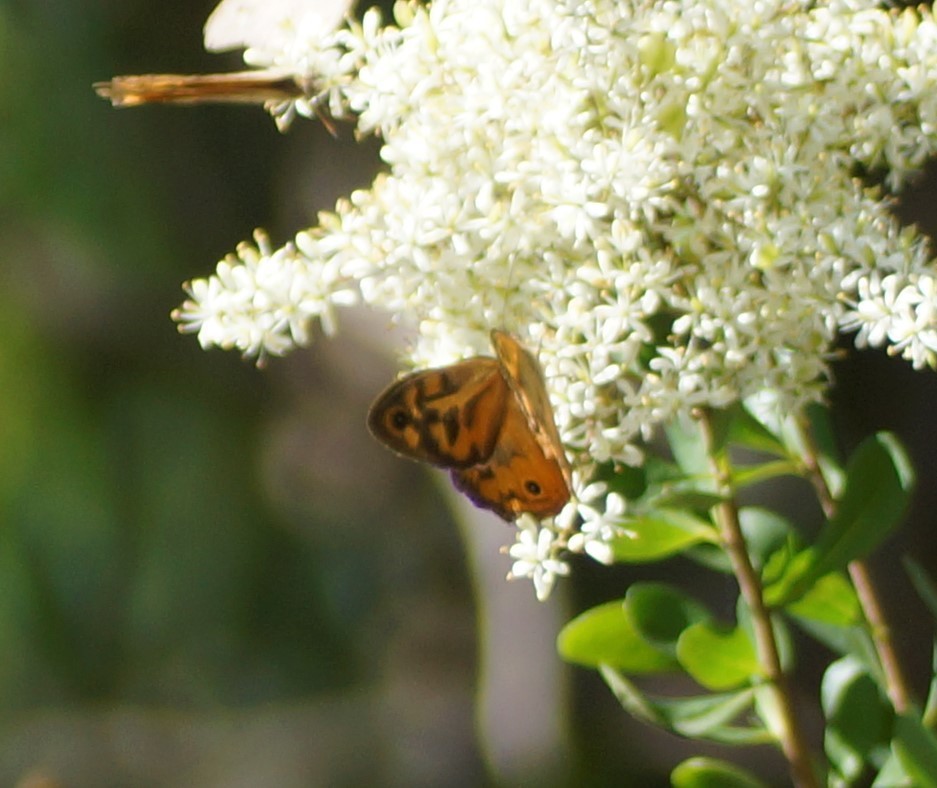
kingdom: Animalia
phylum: Arthropoda
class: Insecta
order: Lepidoptera
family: Nymphalidae
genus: Heteronympha
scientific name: Heteronympha merope
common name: Common brown
